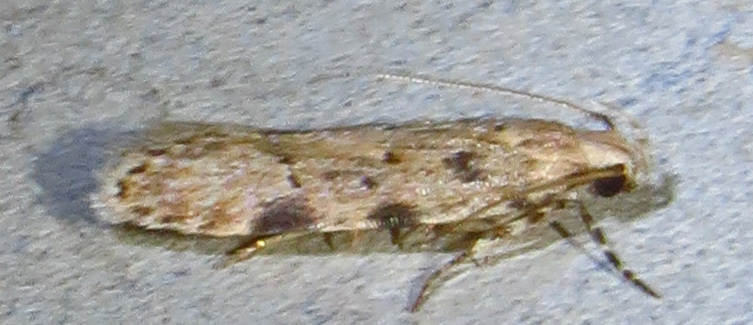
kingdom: Animalia
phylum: Arthropoda
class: Insecta
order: Lepidoptera
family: Gelechiidae
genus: Friseria
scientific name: Friseria cockerelli
